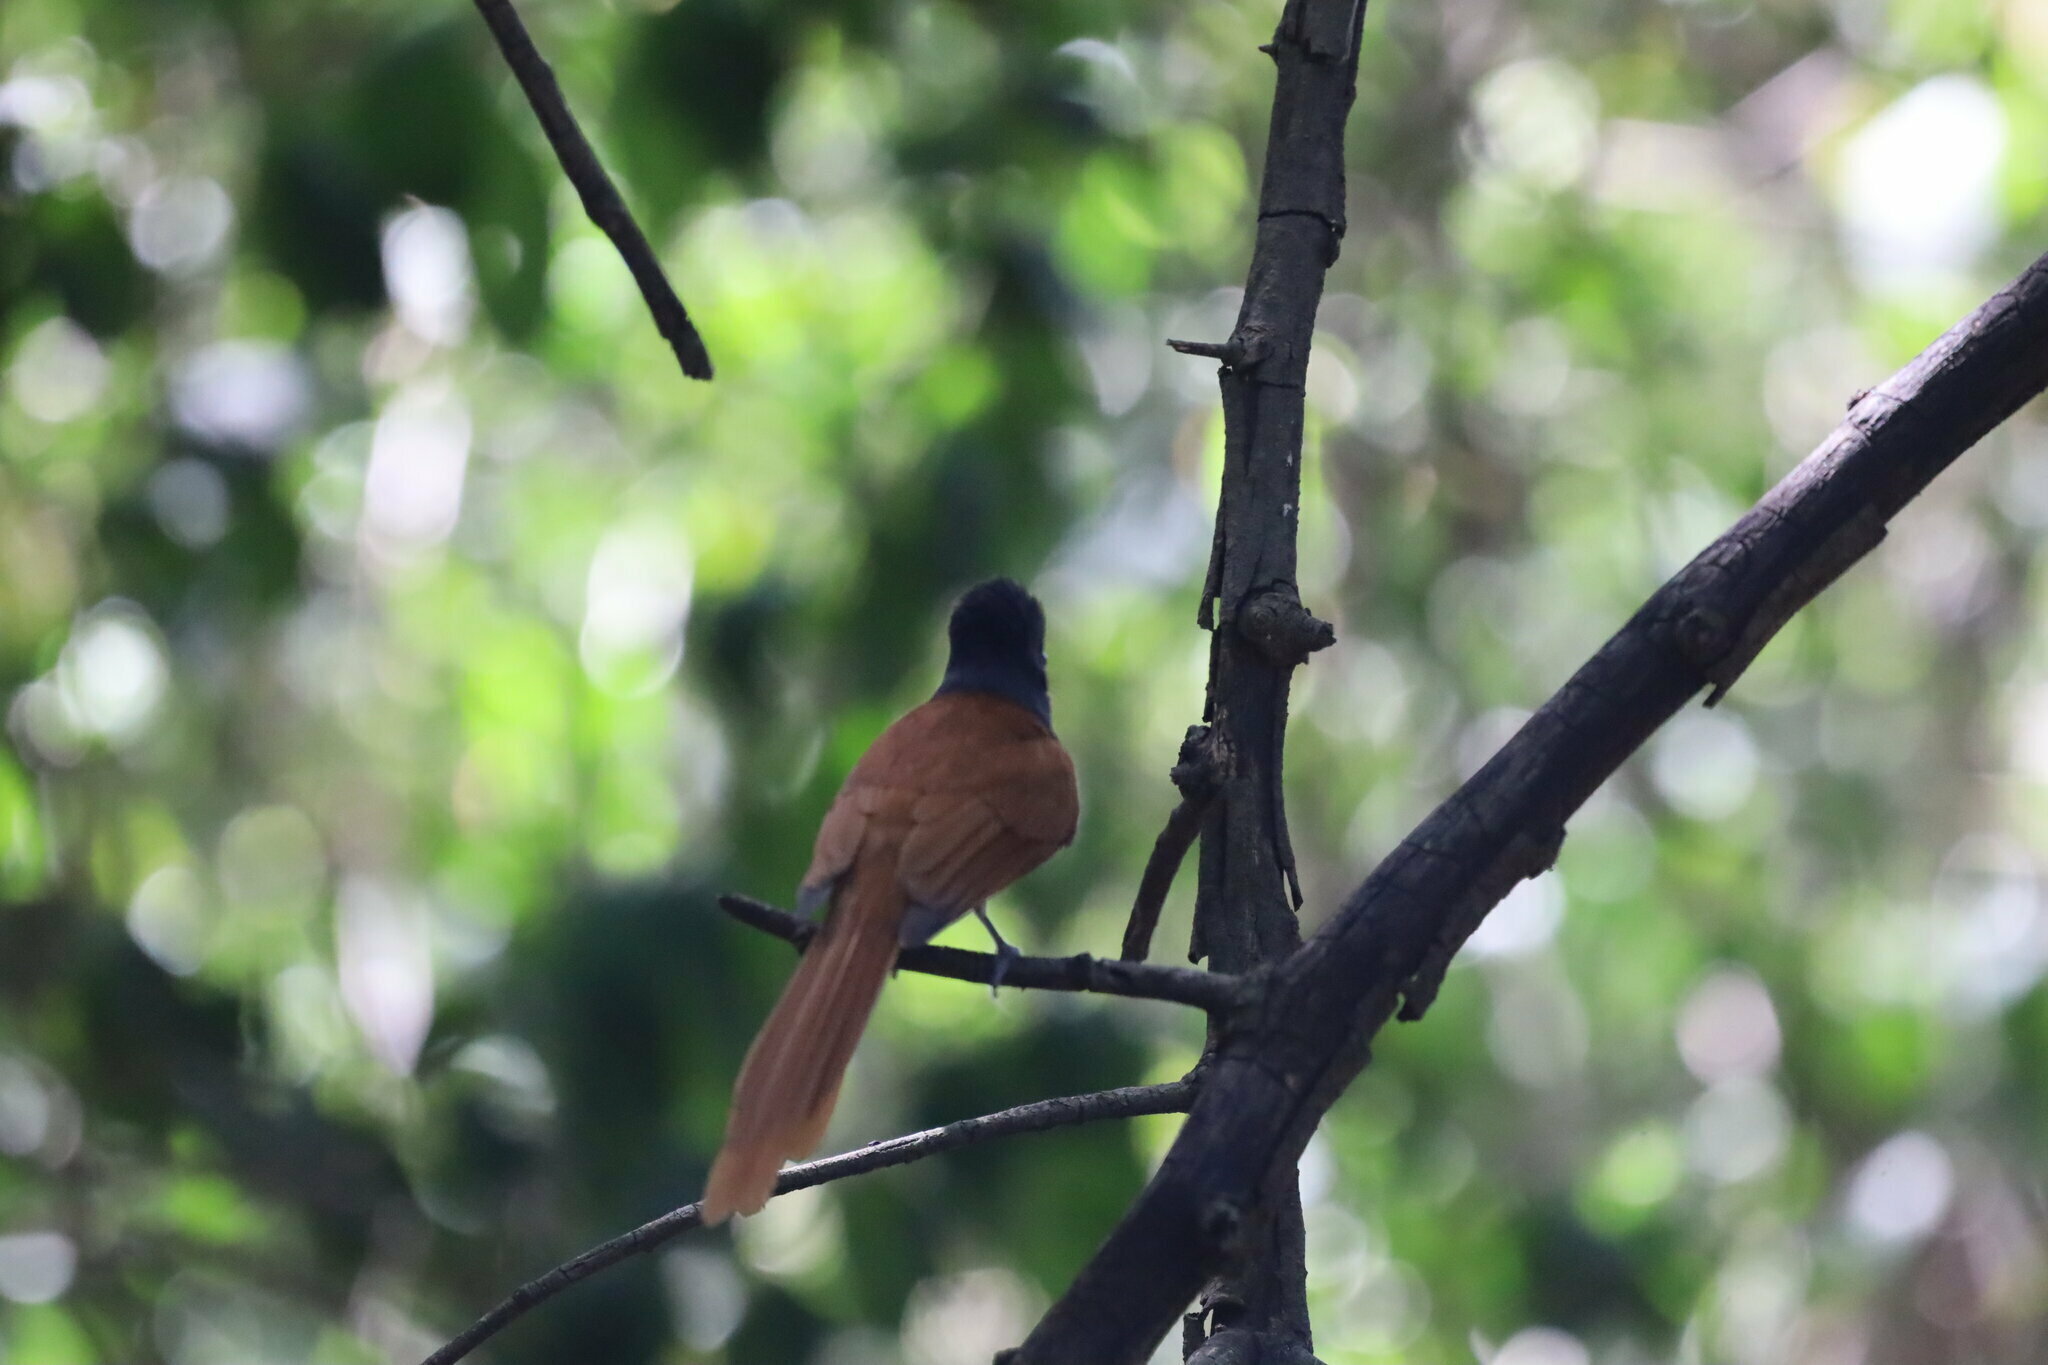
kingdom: Animalia
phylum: Chordata
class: Aves
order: Passeriformes
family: Monarchidae
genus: Terpsiphone
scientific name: Terpsiphone viridis
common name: African paradise flycatcher
